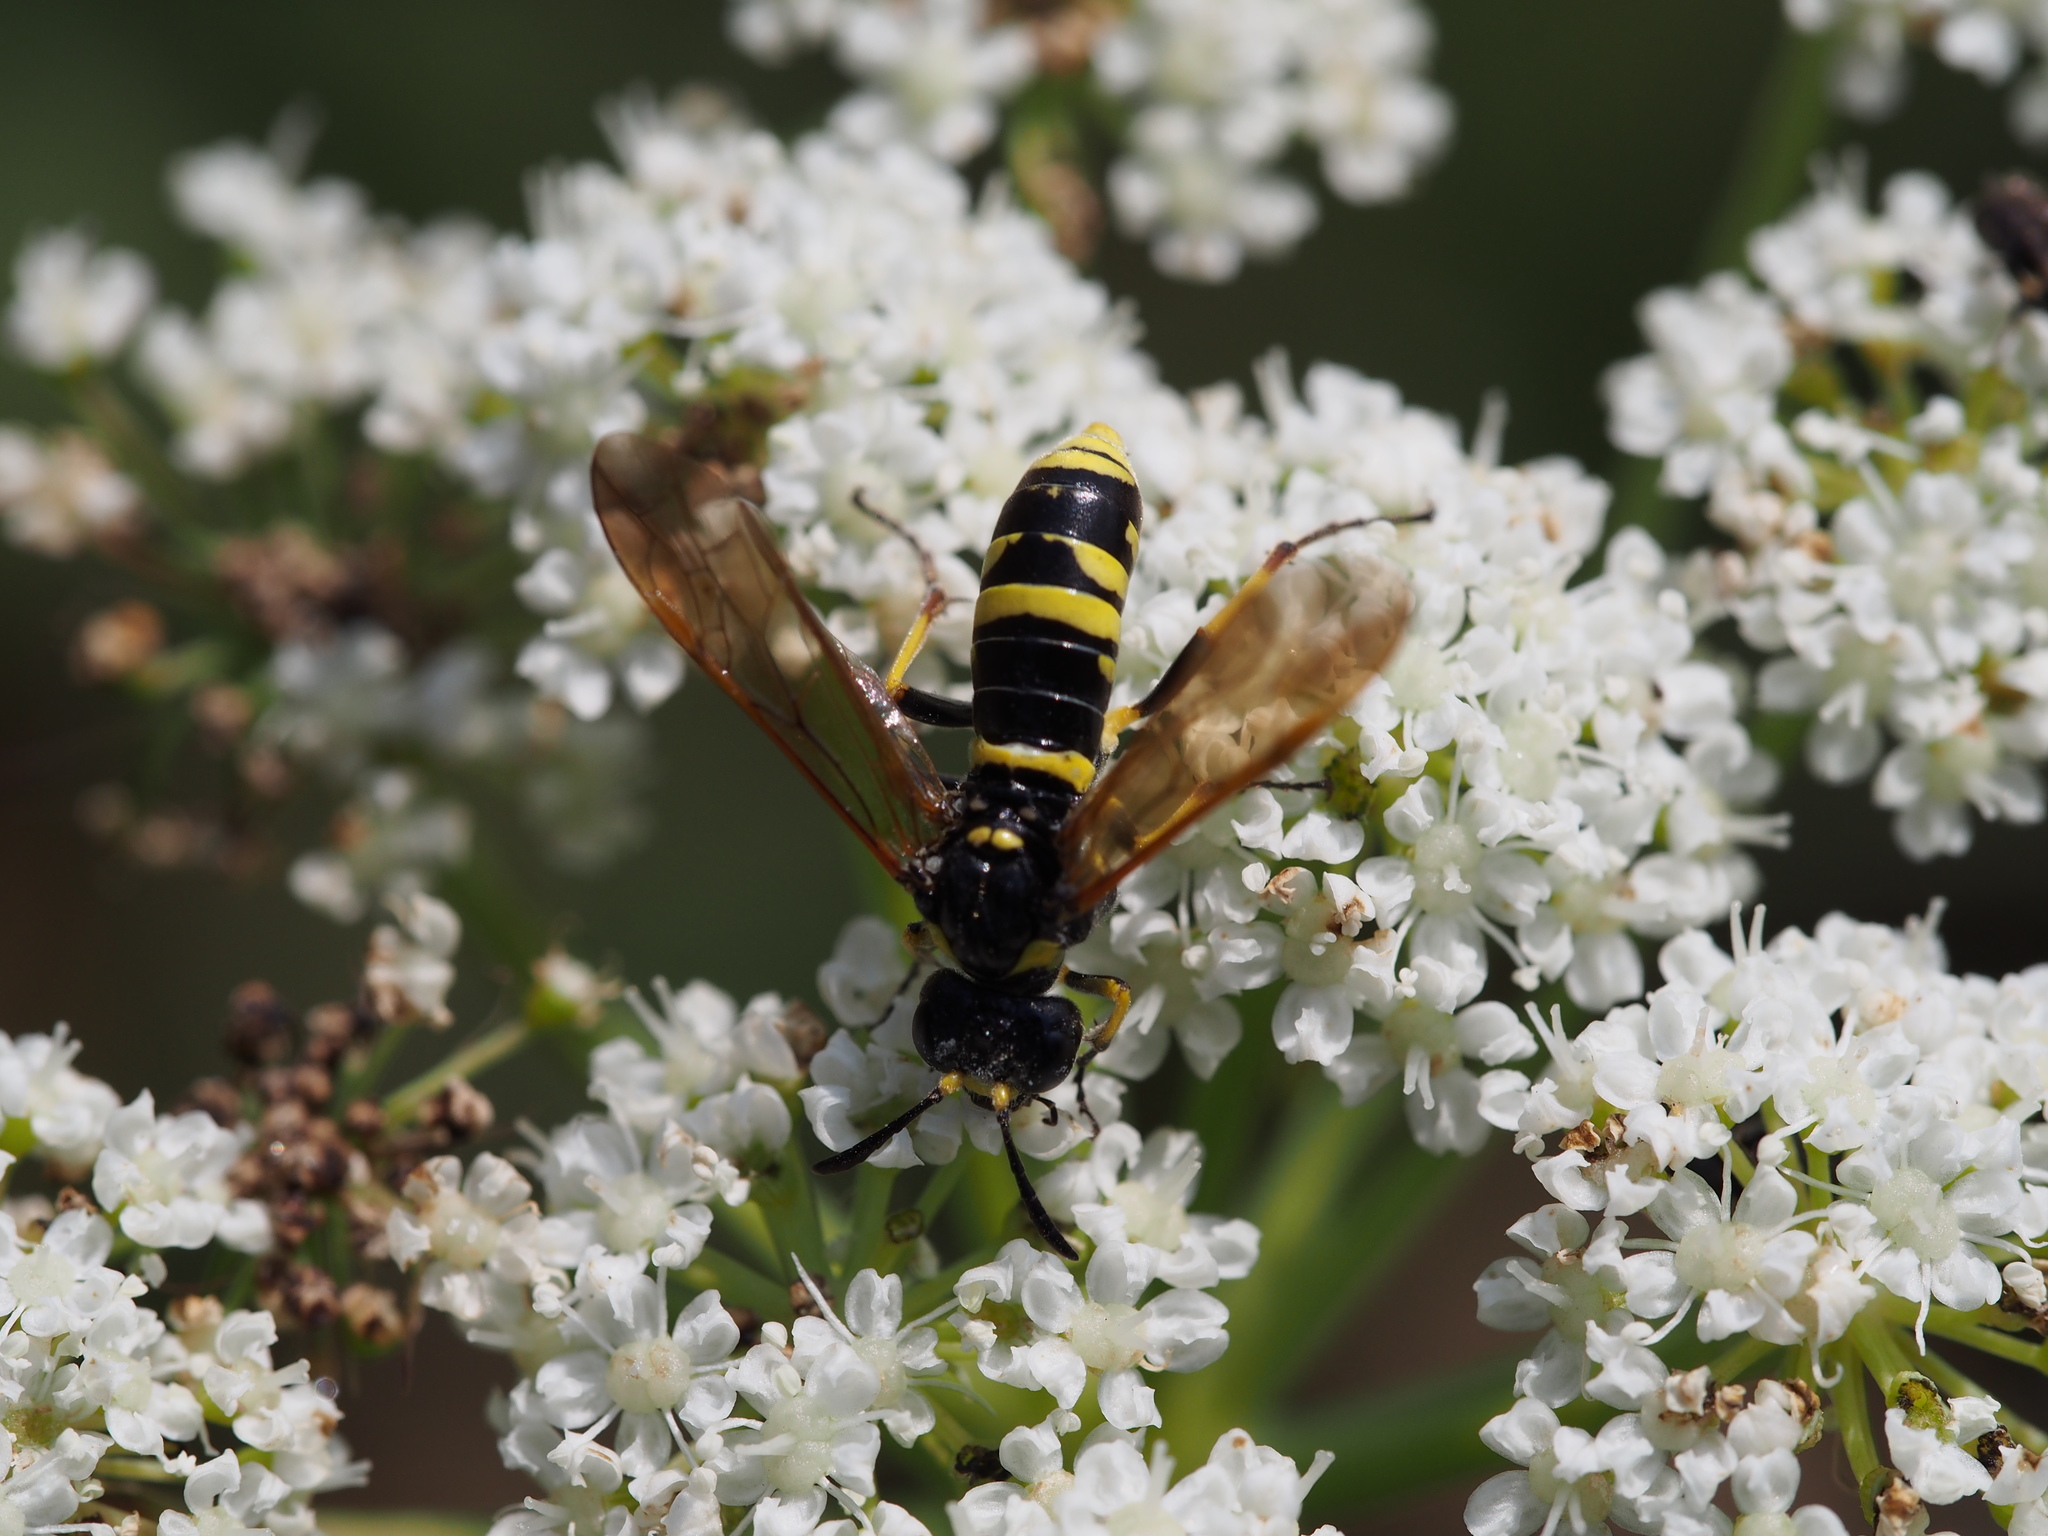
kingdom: Animalia
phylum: Arthropoda
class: Insecta
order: Hymenoptera
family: Tenthredinidae
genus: Tenthredo
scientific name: Tenthredo
